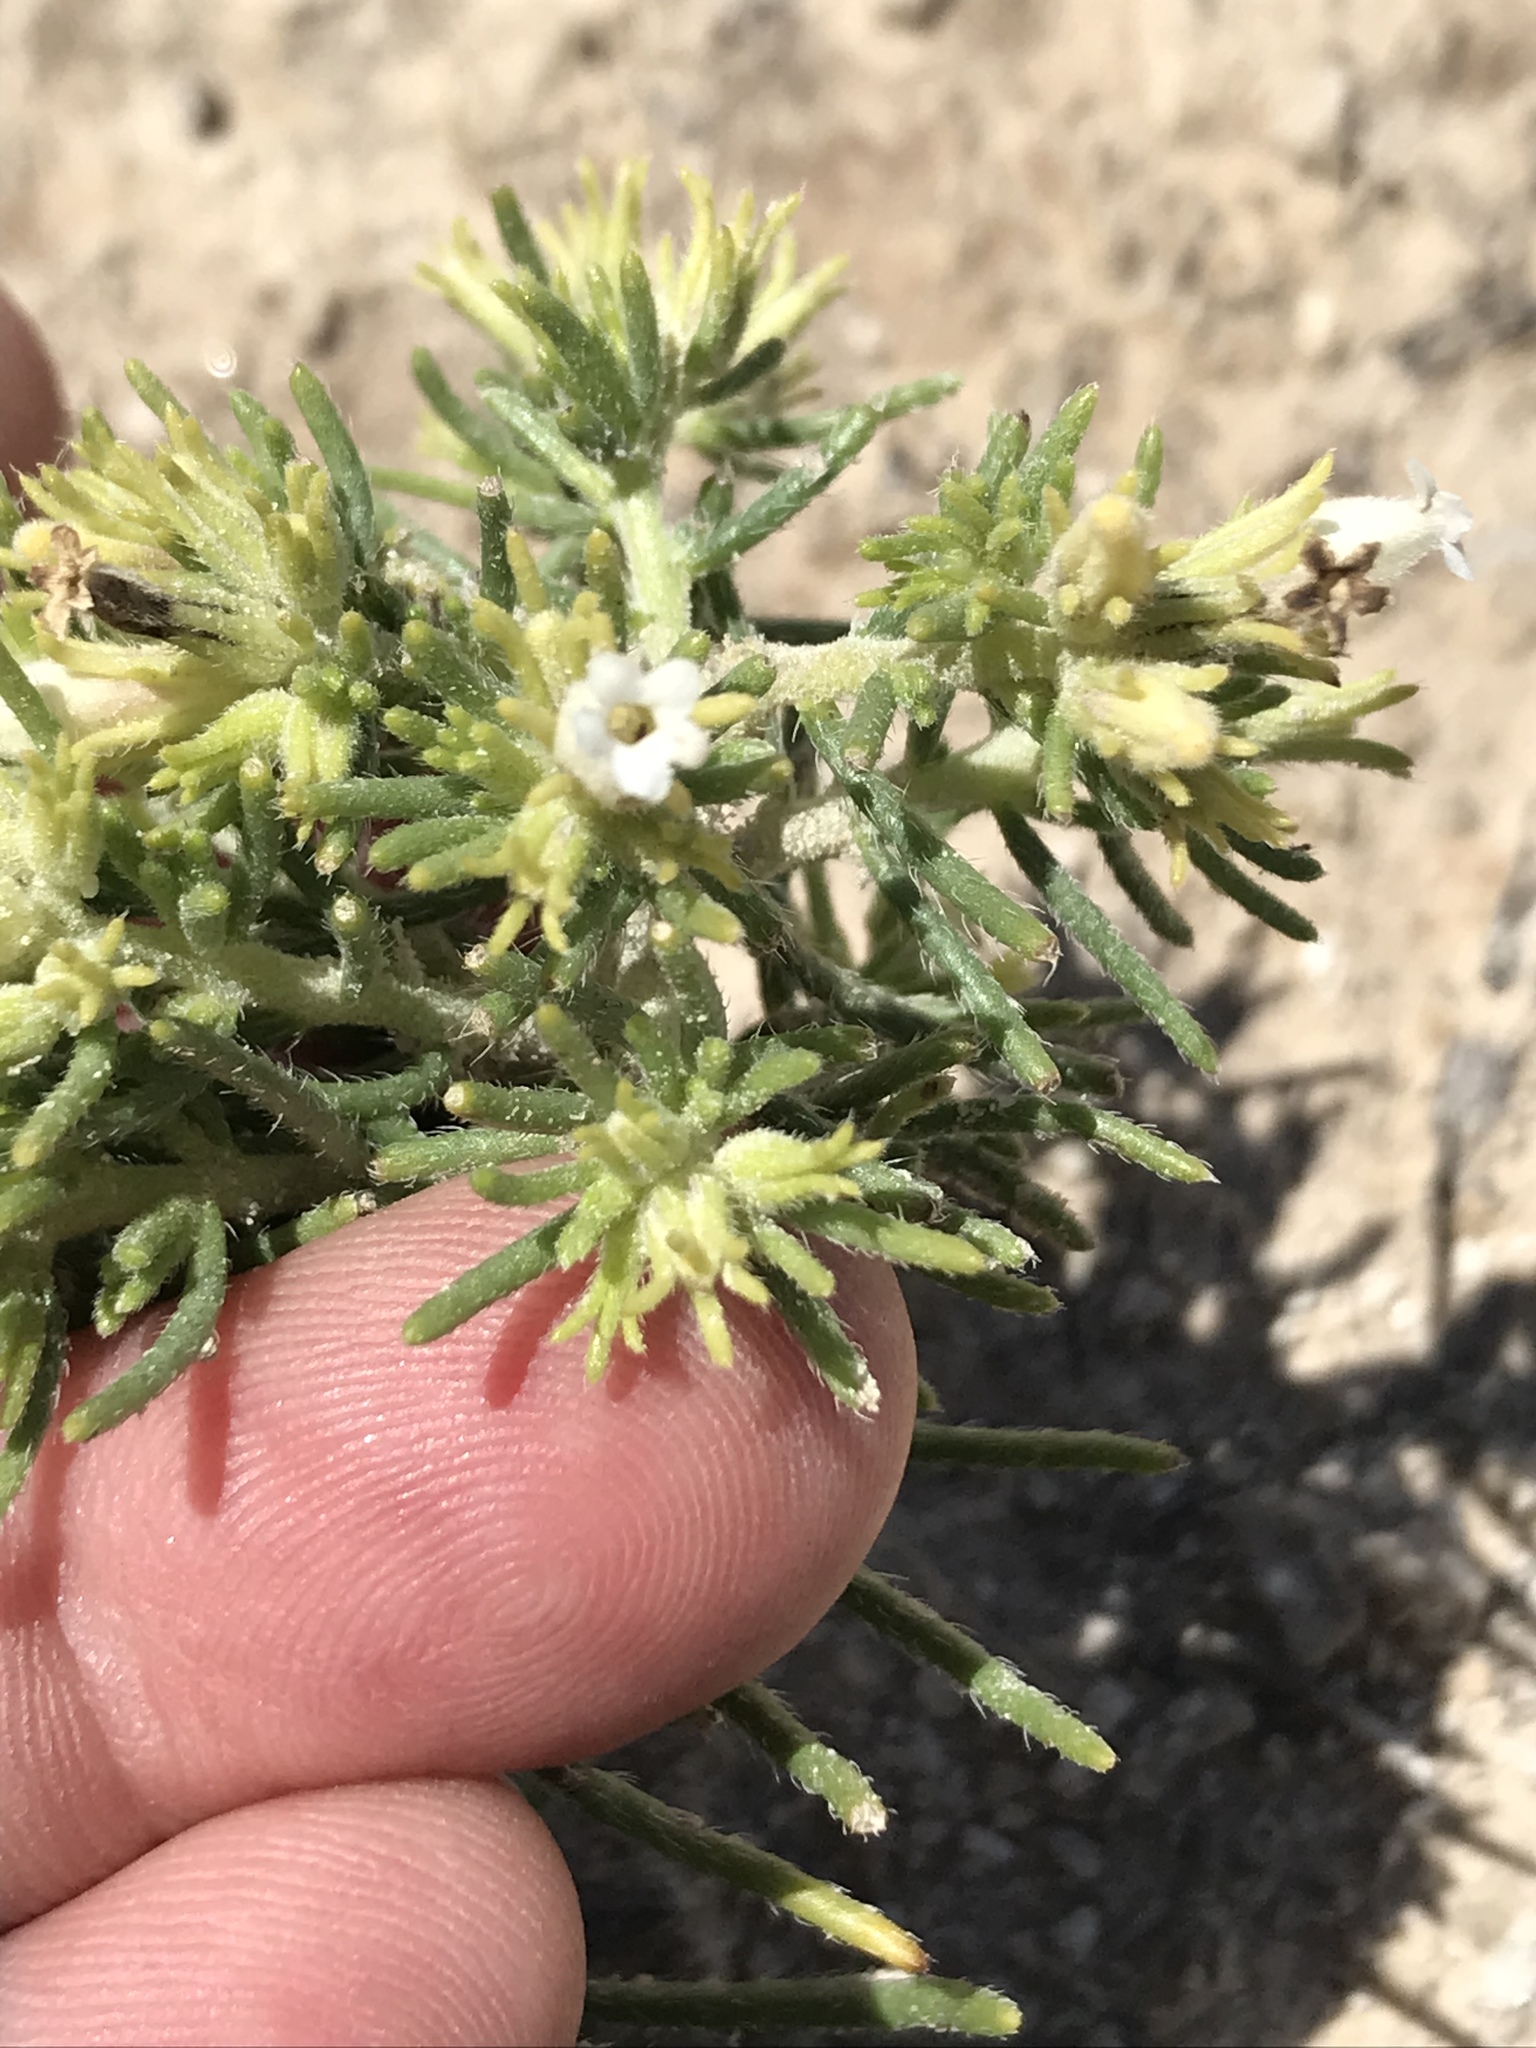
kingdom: Plantae
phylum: Tracheophyta
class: Magnoliopsida
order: Boraginales
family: Namaceae
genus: Andropus
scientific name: Andropus carnosus
